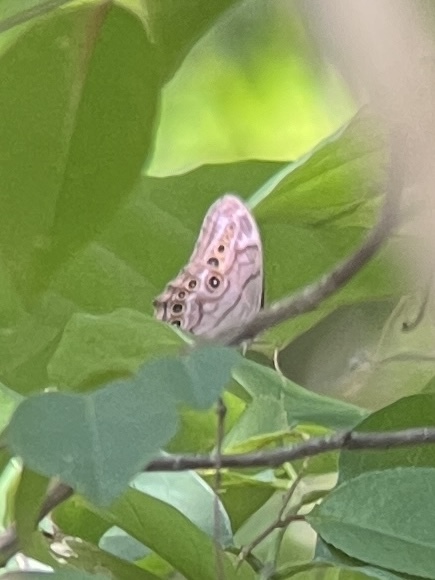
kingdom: Animalia
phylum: Arthropoda
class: Insecta
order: Lepidoptera
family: Nymphalidae
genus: Lethe
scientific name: Lethe anthedon
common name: Northern pearly-eye
